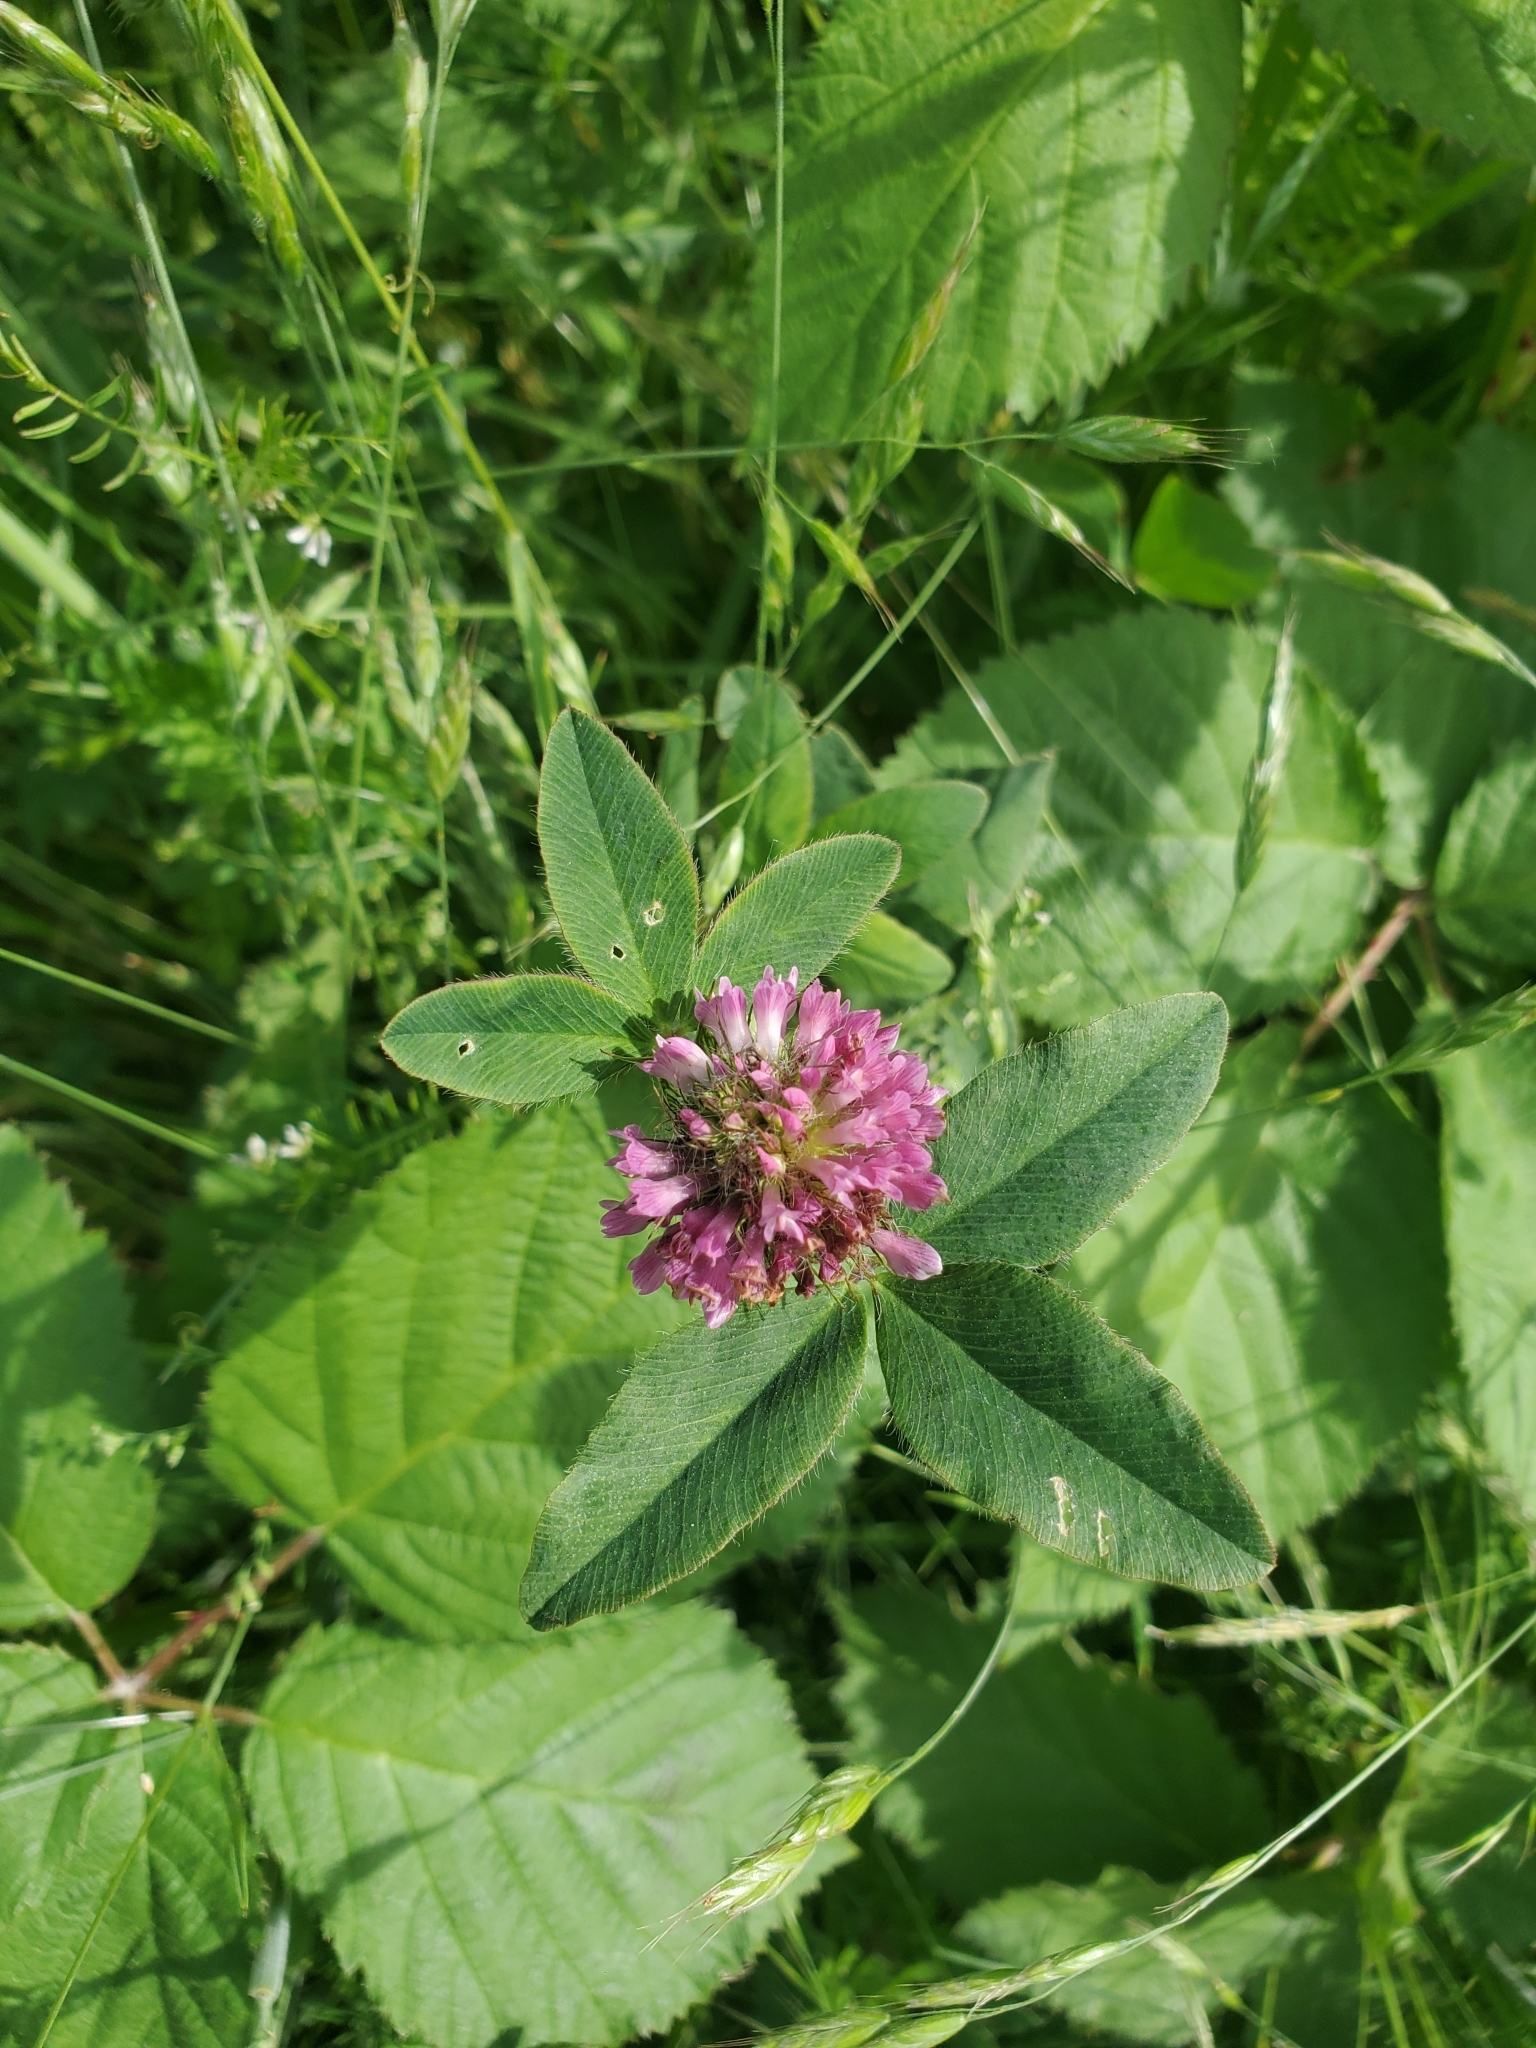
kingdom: Plantae
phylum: Tracheophyta
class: Magnoliopsida
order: Fabales
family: Fabaceae
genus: Trifolium
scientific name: Trifolium pratense
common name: Red clover
